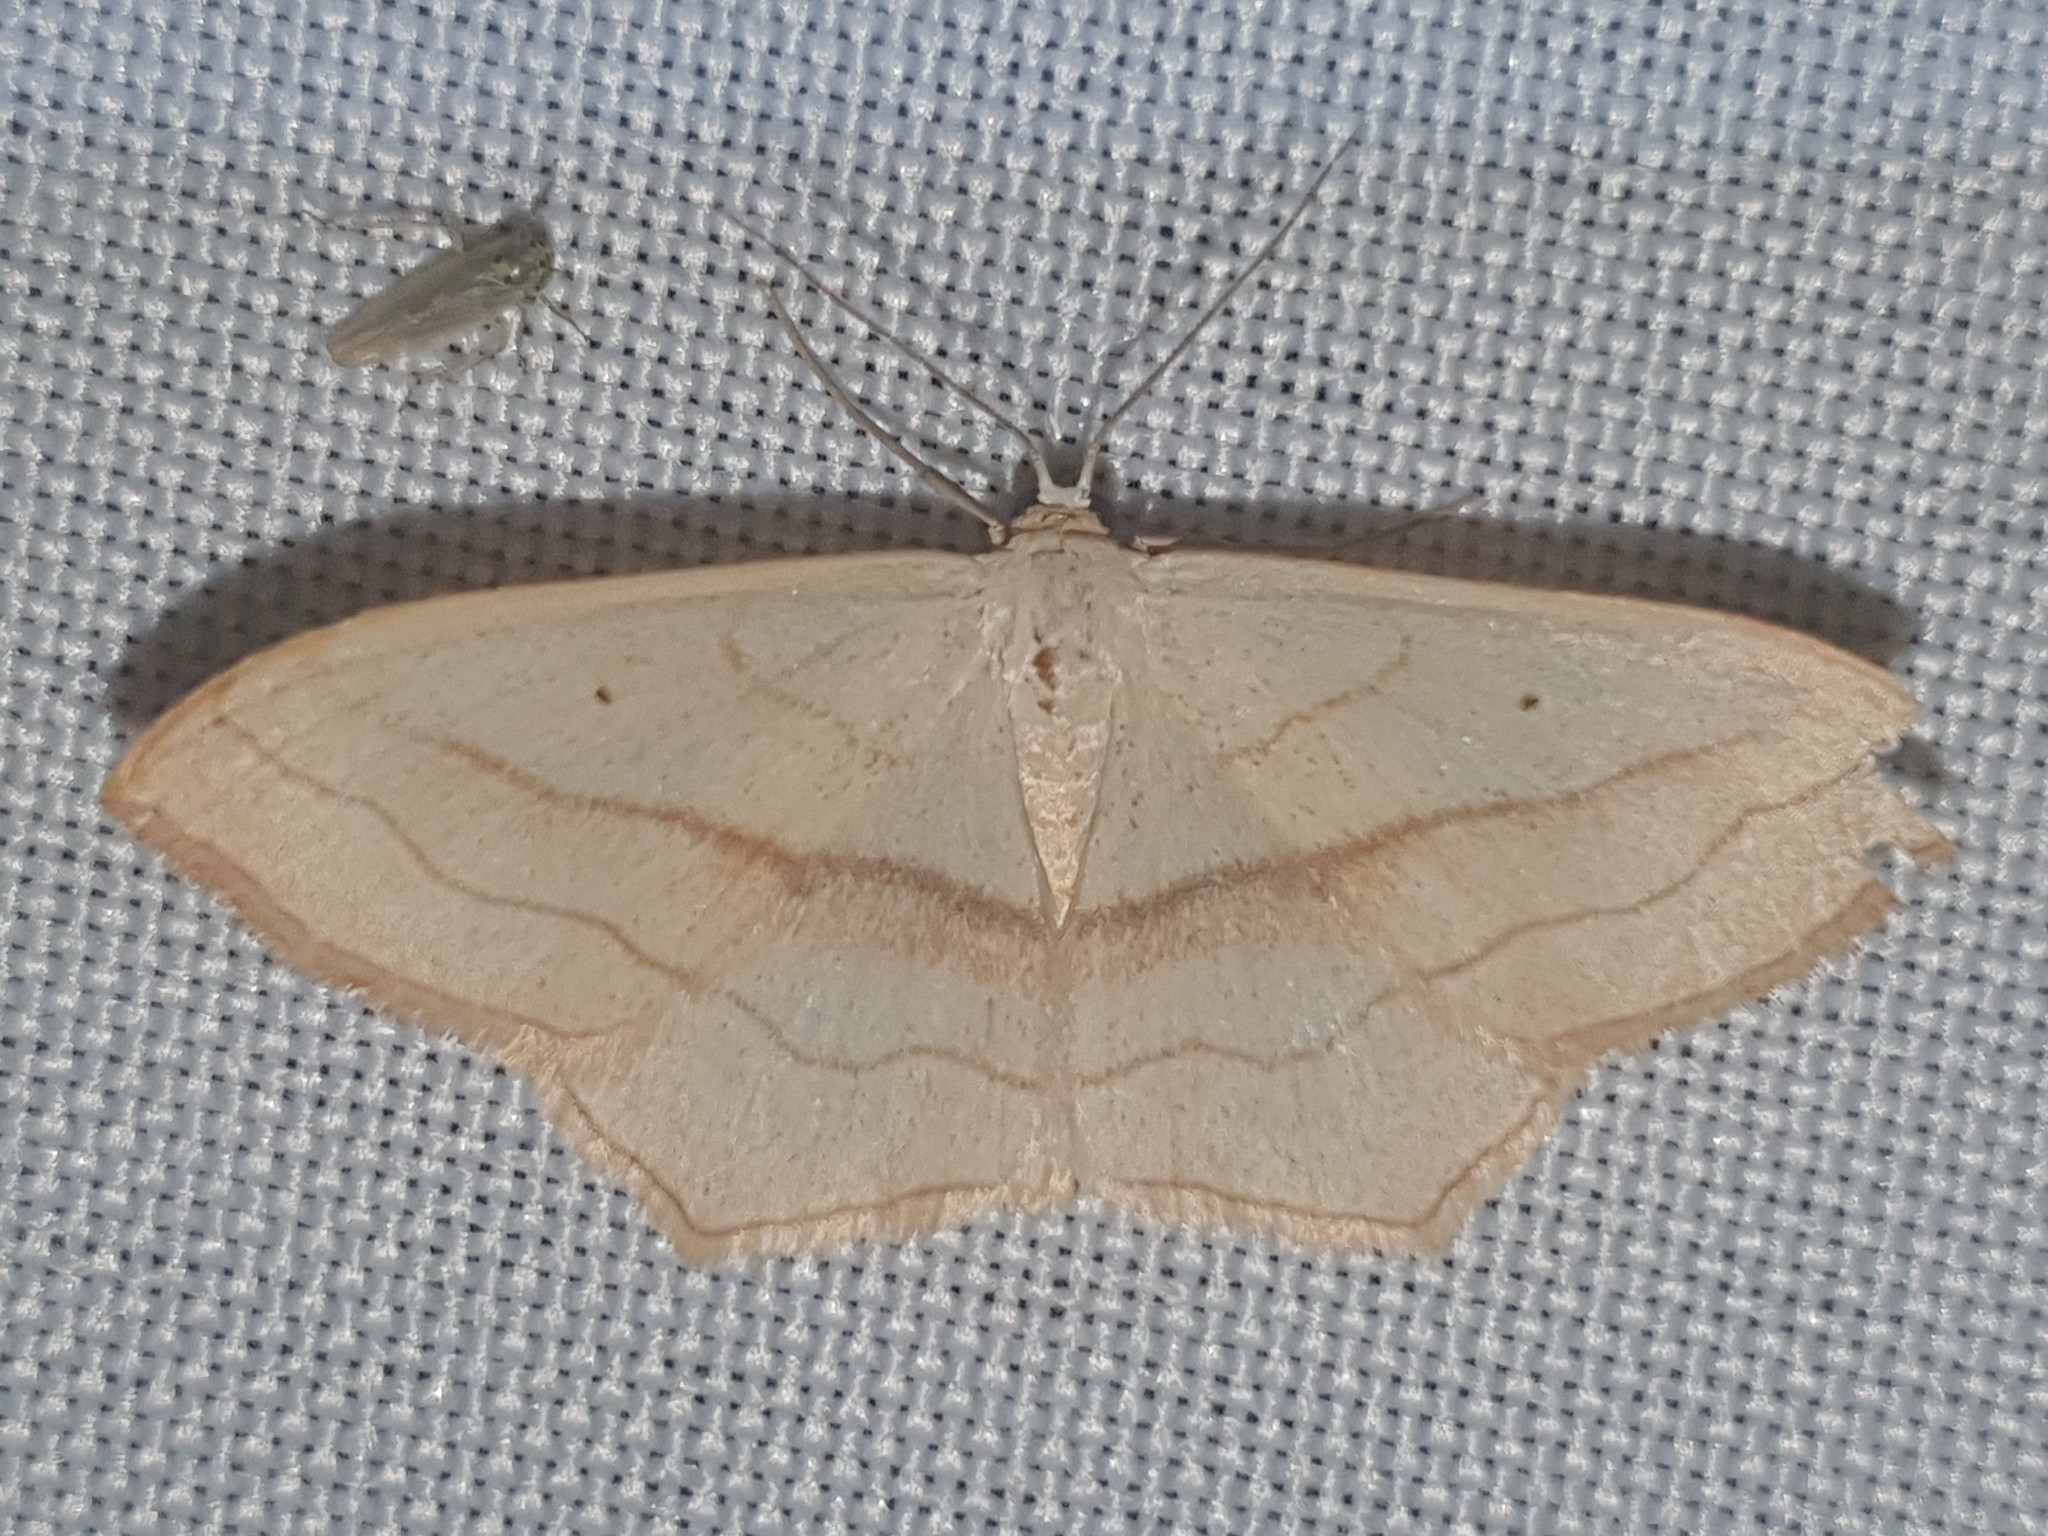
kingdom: Animalia
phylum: Arthropoda
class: Insecta
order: Lepidoptera
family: Geometridae
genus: Scopula
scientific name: Scopula imitaria
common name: Small blood-vein
